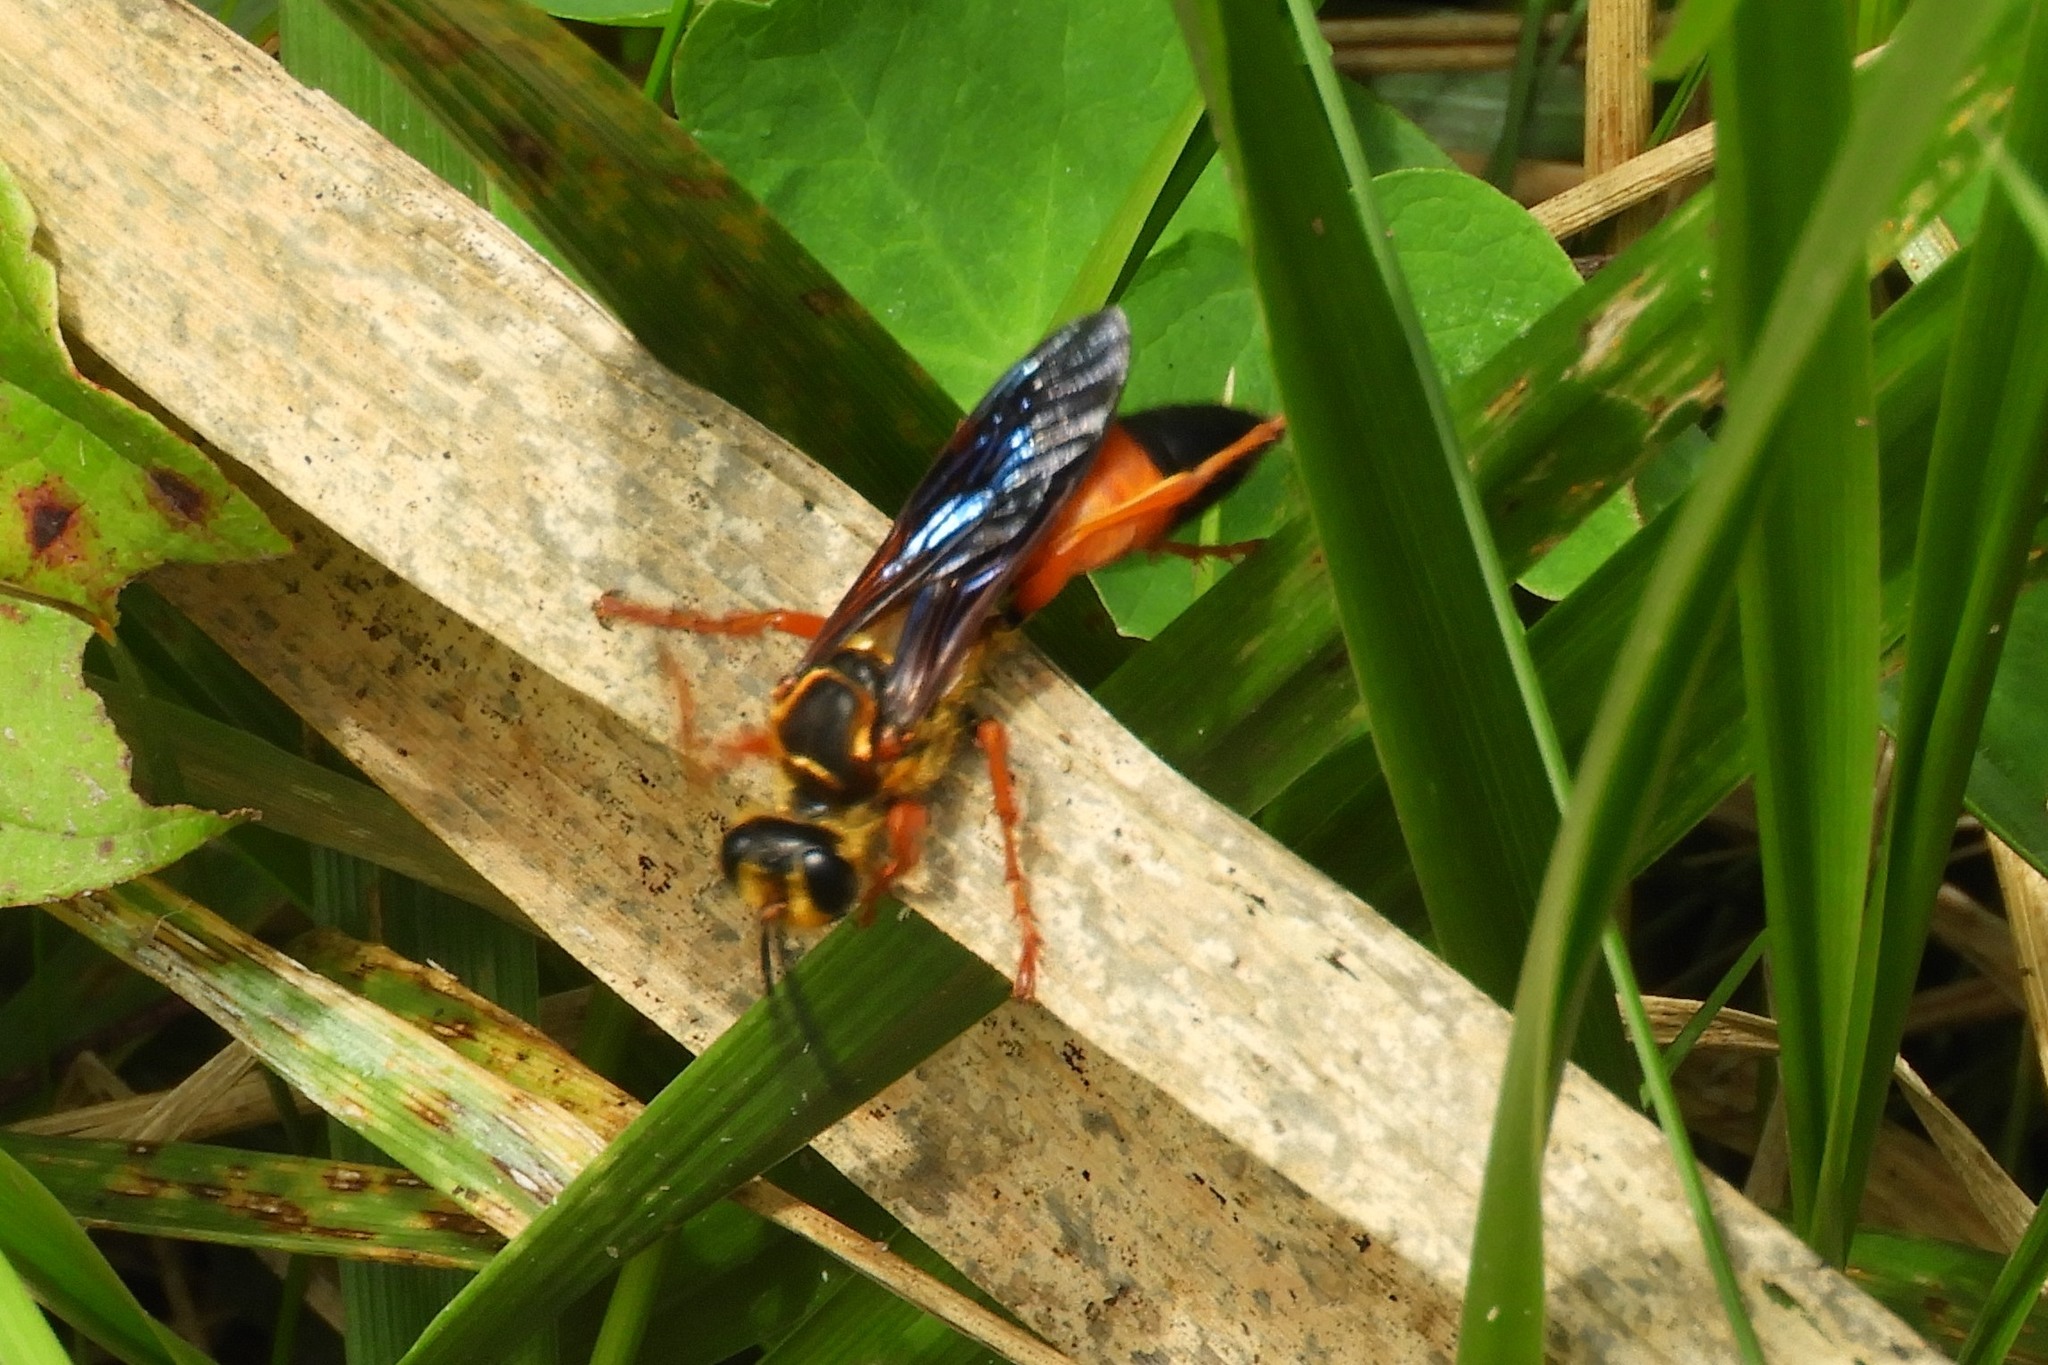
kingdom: Animalia
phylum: Arthropoda
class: Insecta
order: Hymenoptera
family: Sphecidae
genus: Sphex
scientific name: Sphex ichneumoneus
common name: Great golden digger wasp
